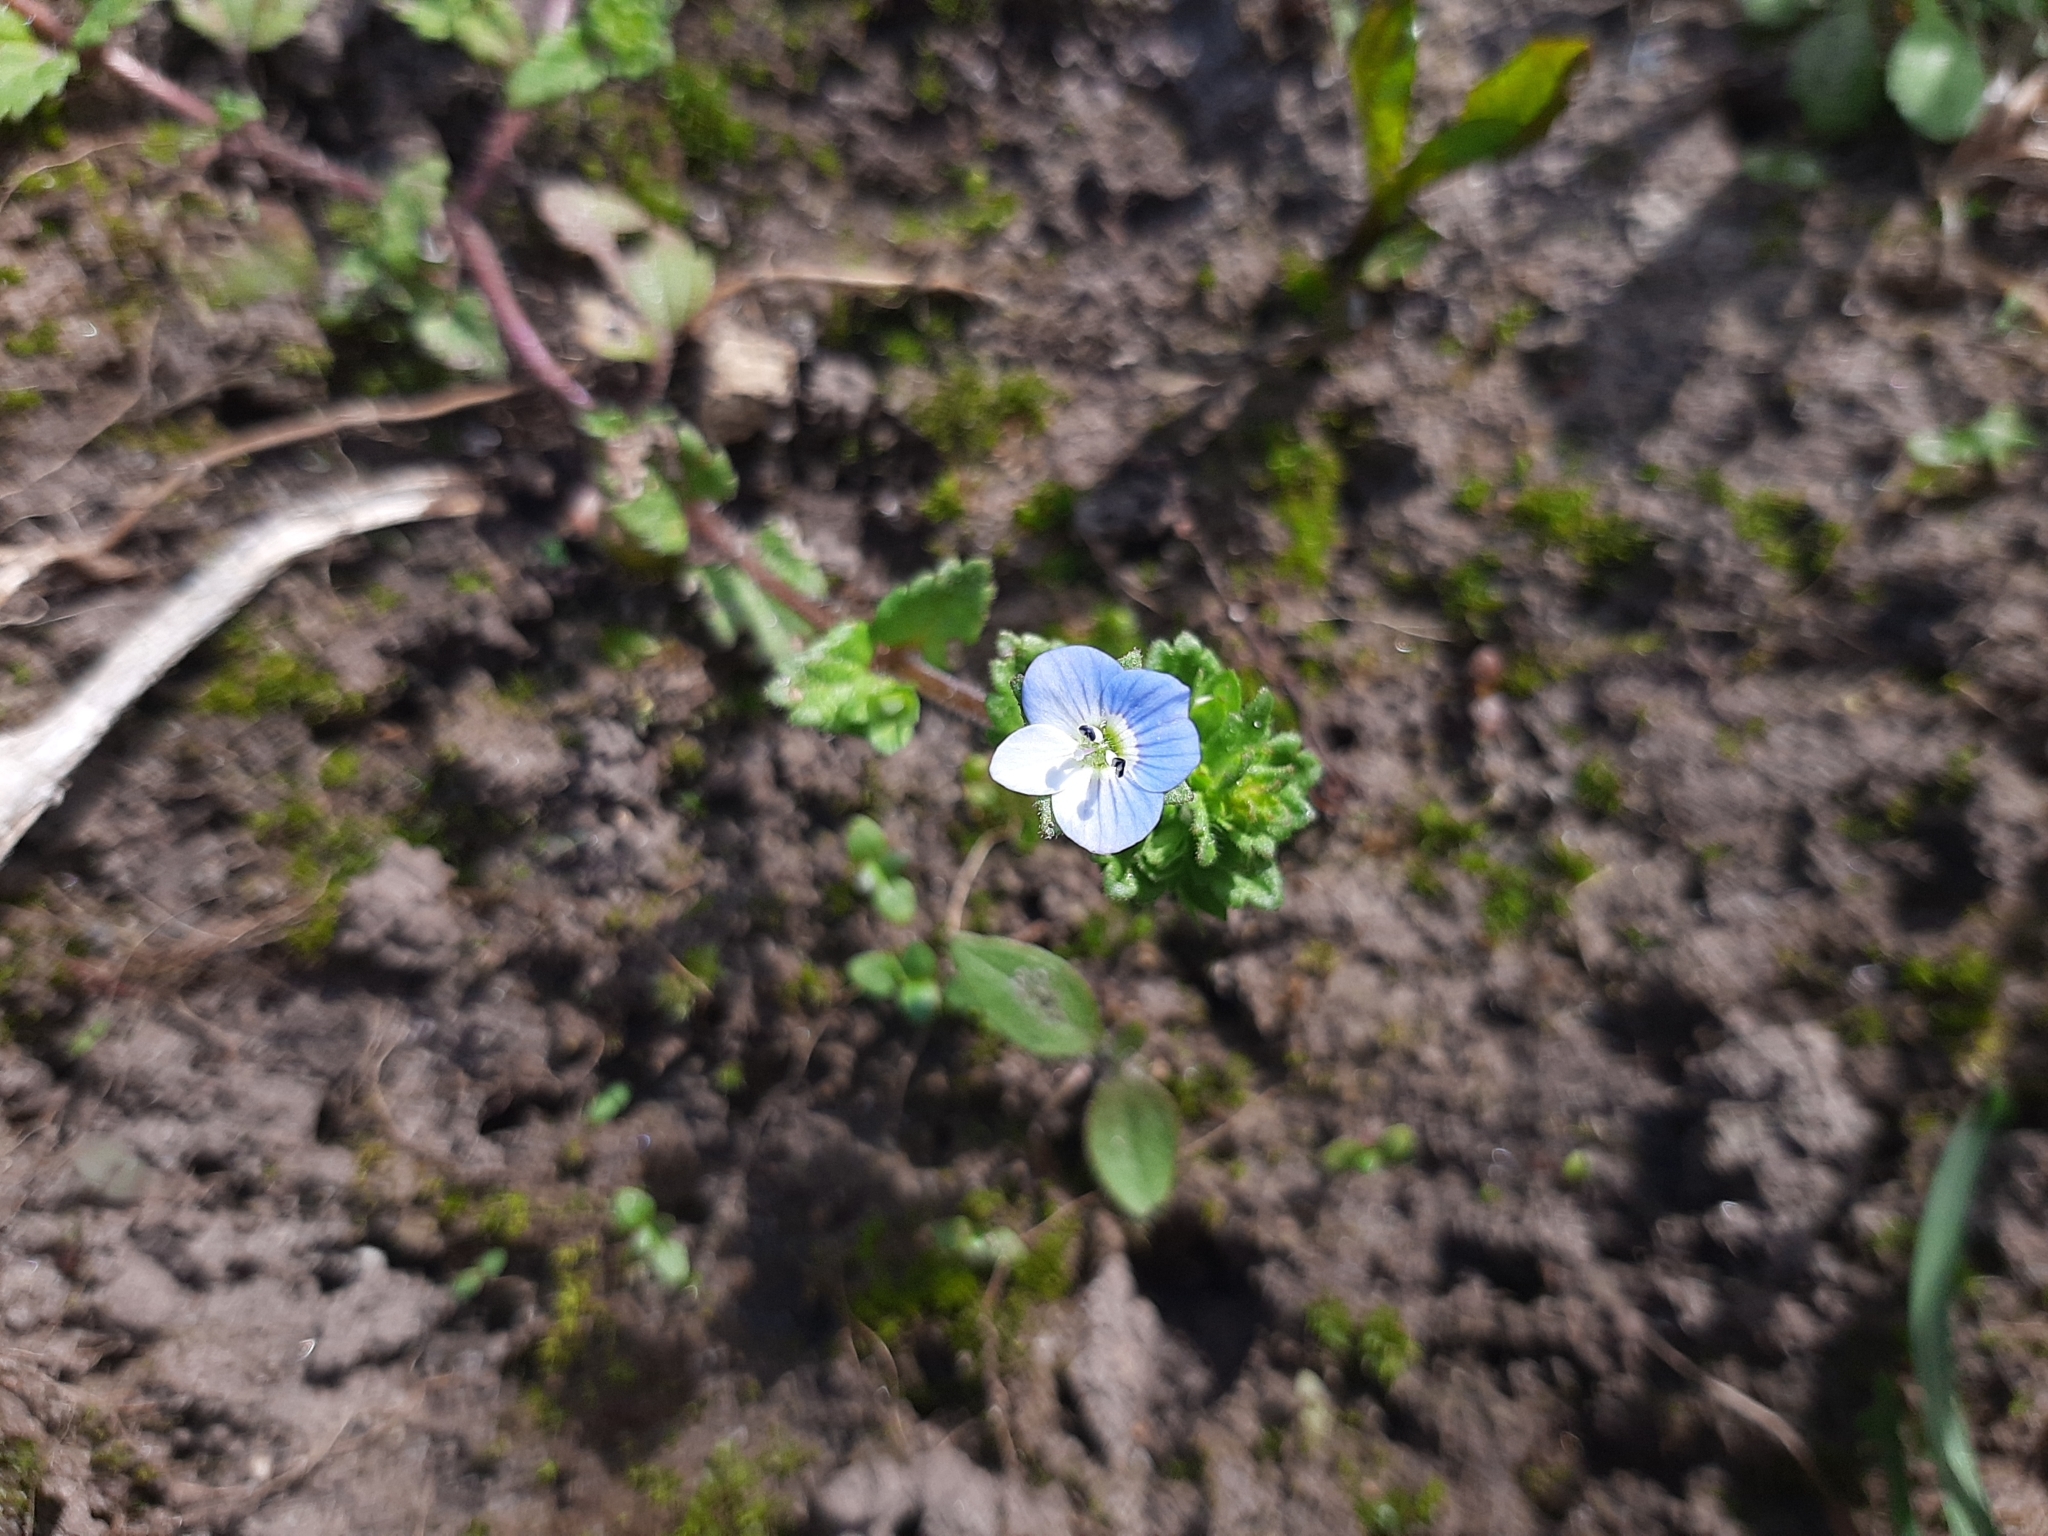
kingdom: Plantae
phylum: Tracheophyta
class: Magnoliopsida
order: Lamiales
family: Plantaginaceae
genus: Veronica
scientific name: Veronica persica
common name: Common field-speedwell
